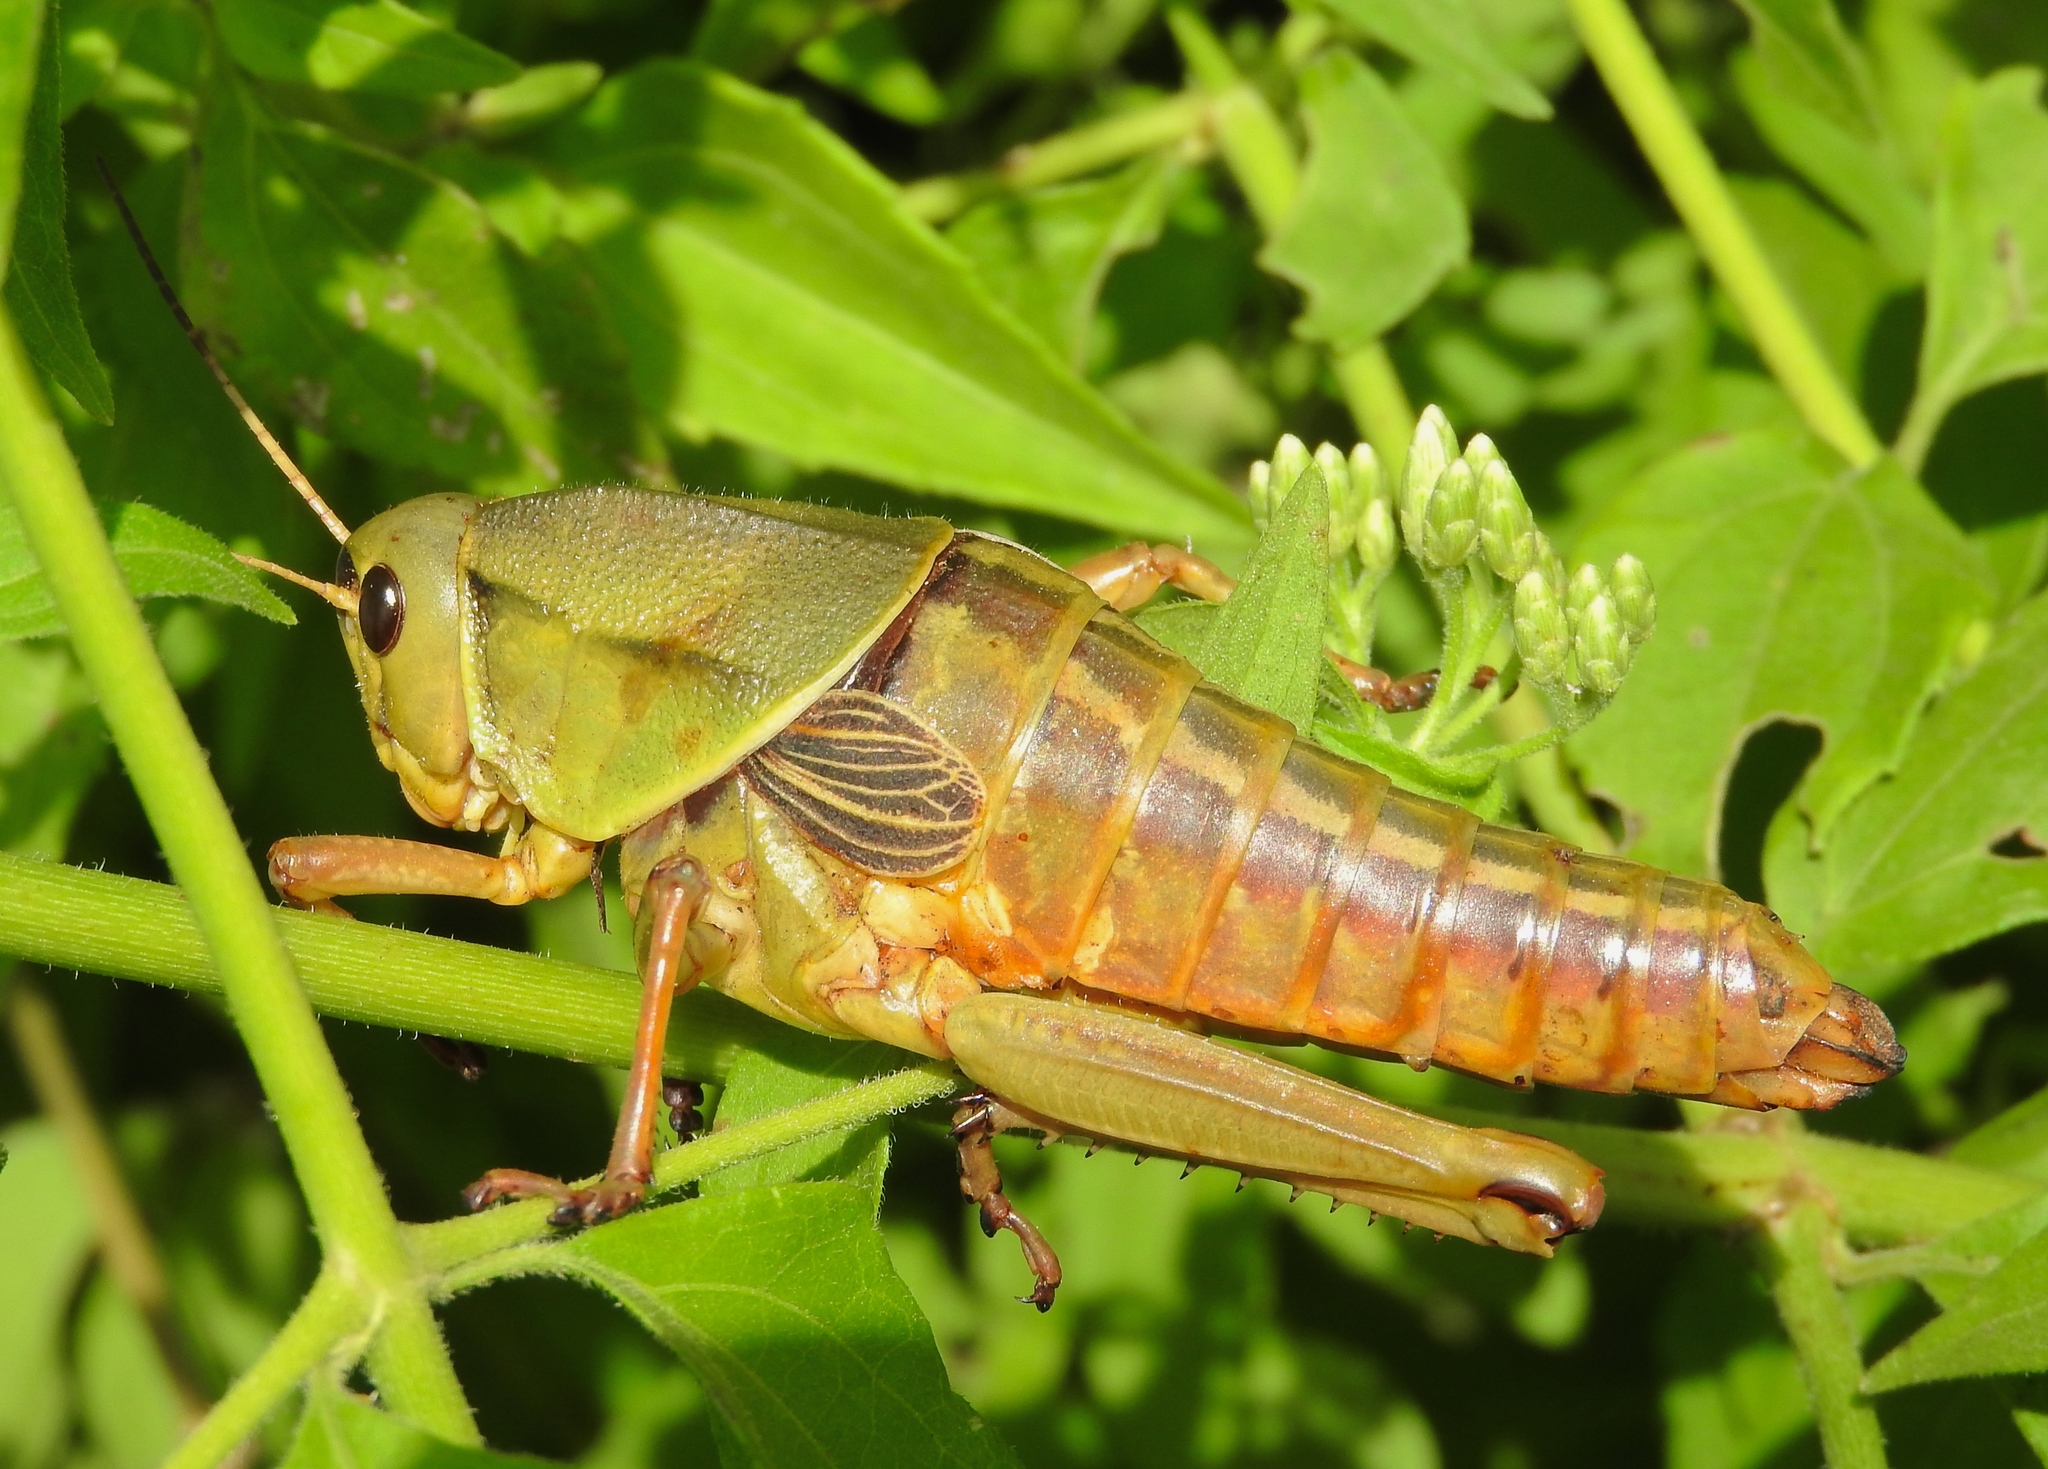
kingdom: Animalia
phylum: Arthropoda
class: Insecta
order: Orthoptera
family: Romaleidae
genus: Brachystola
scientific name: Brachystola behrensii
